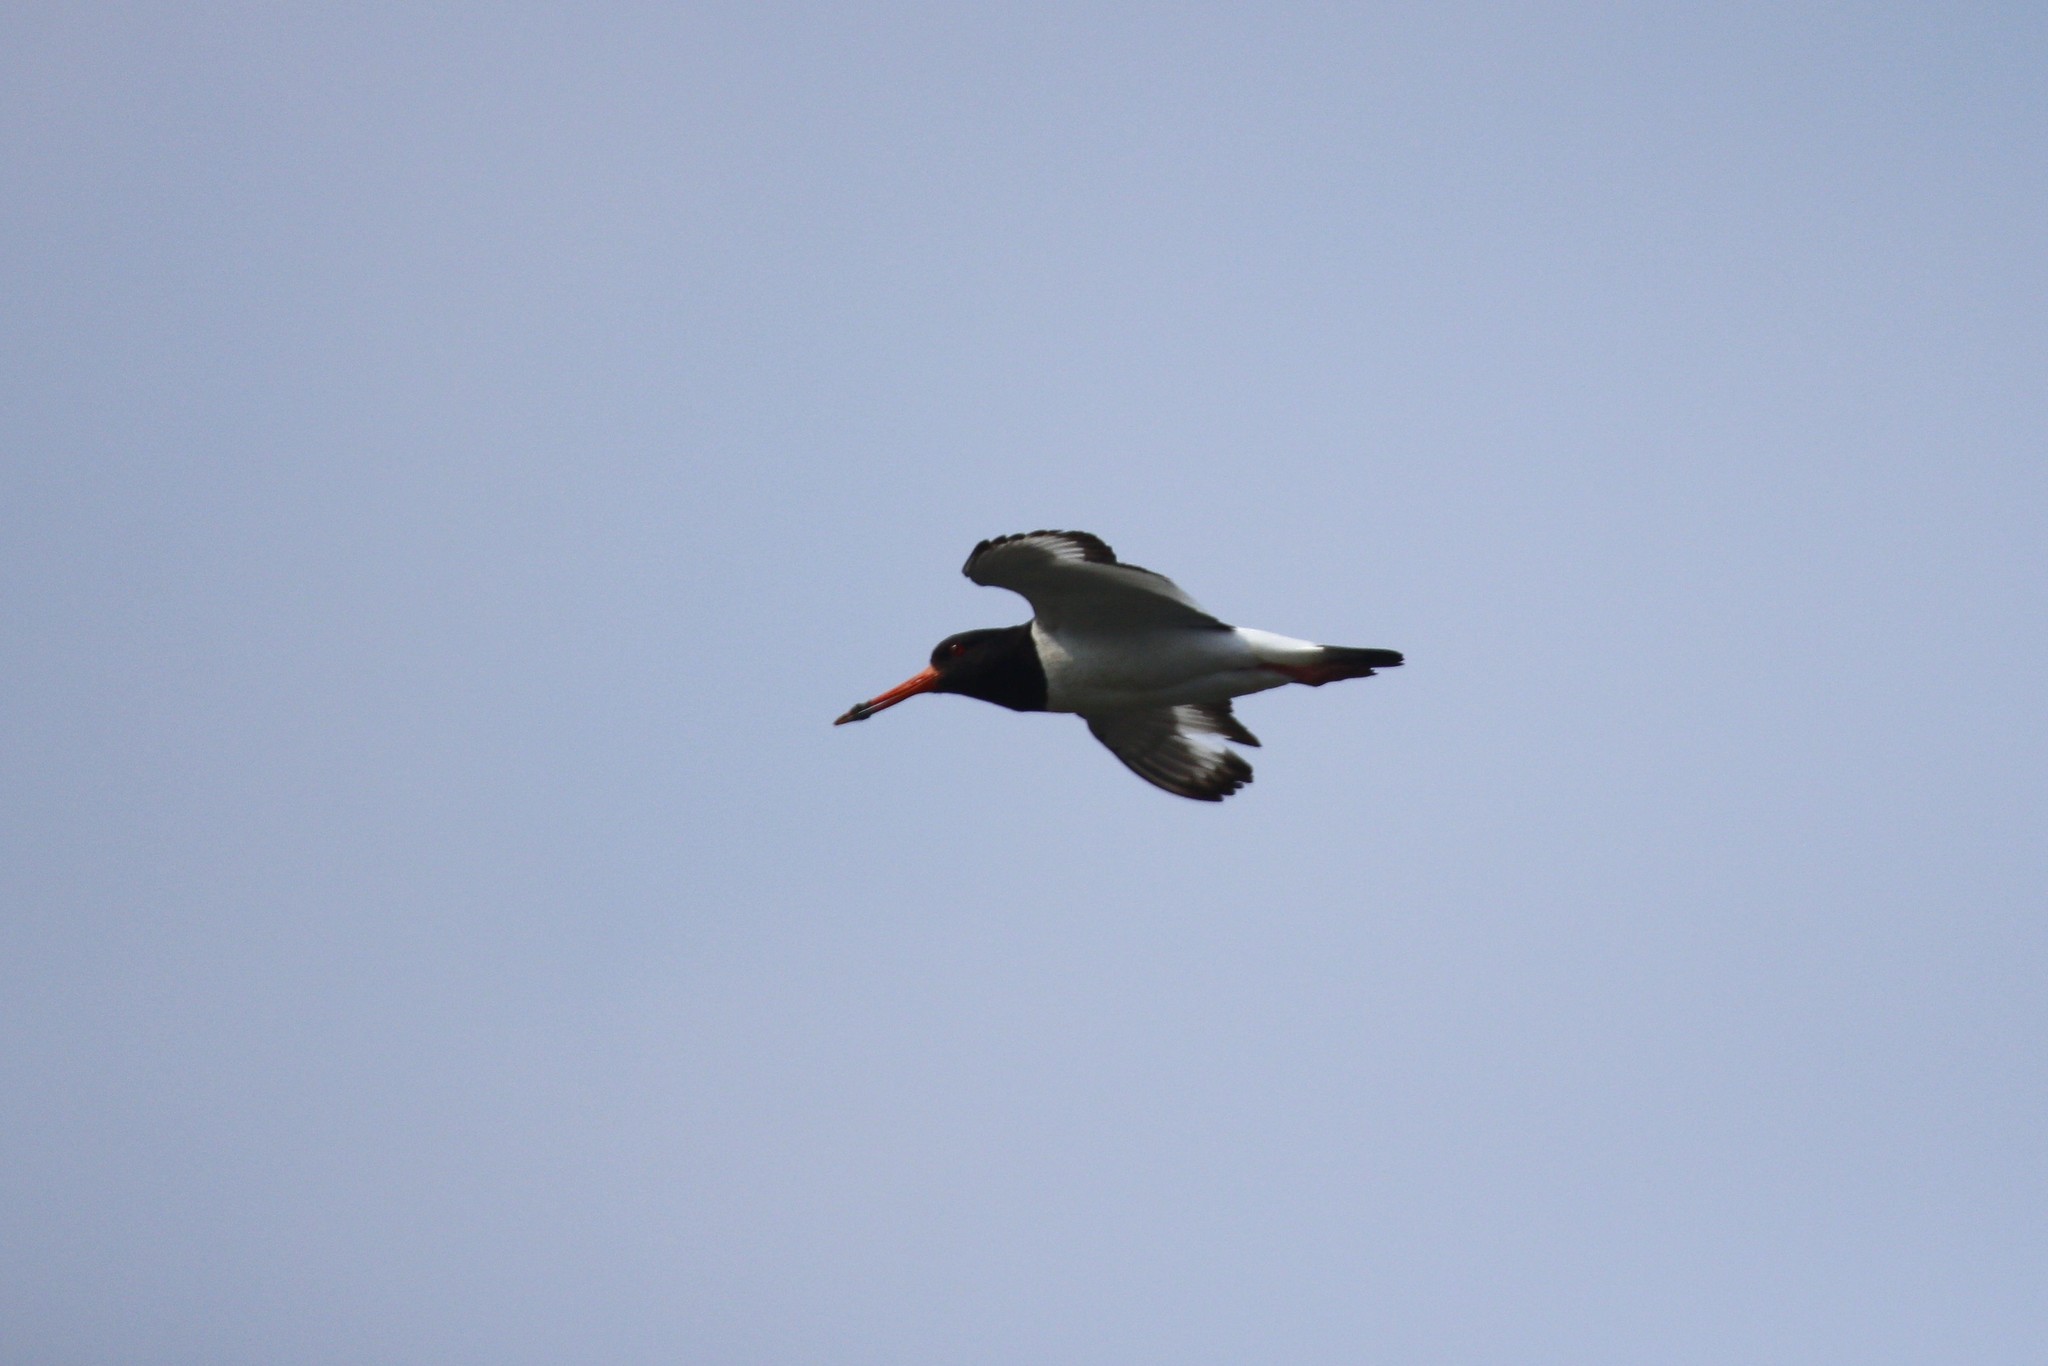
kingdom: Animalia
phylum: Chordata
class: Aves
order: Charadriiformes
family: Haematopodidae
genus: Haematopus
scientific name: Haematopus ostralegus
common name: Eurasian oystercatcher
